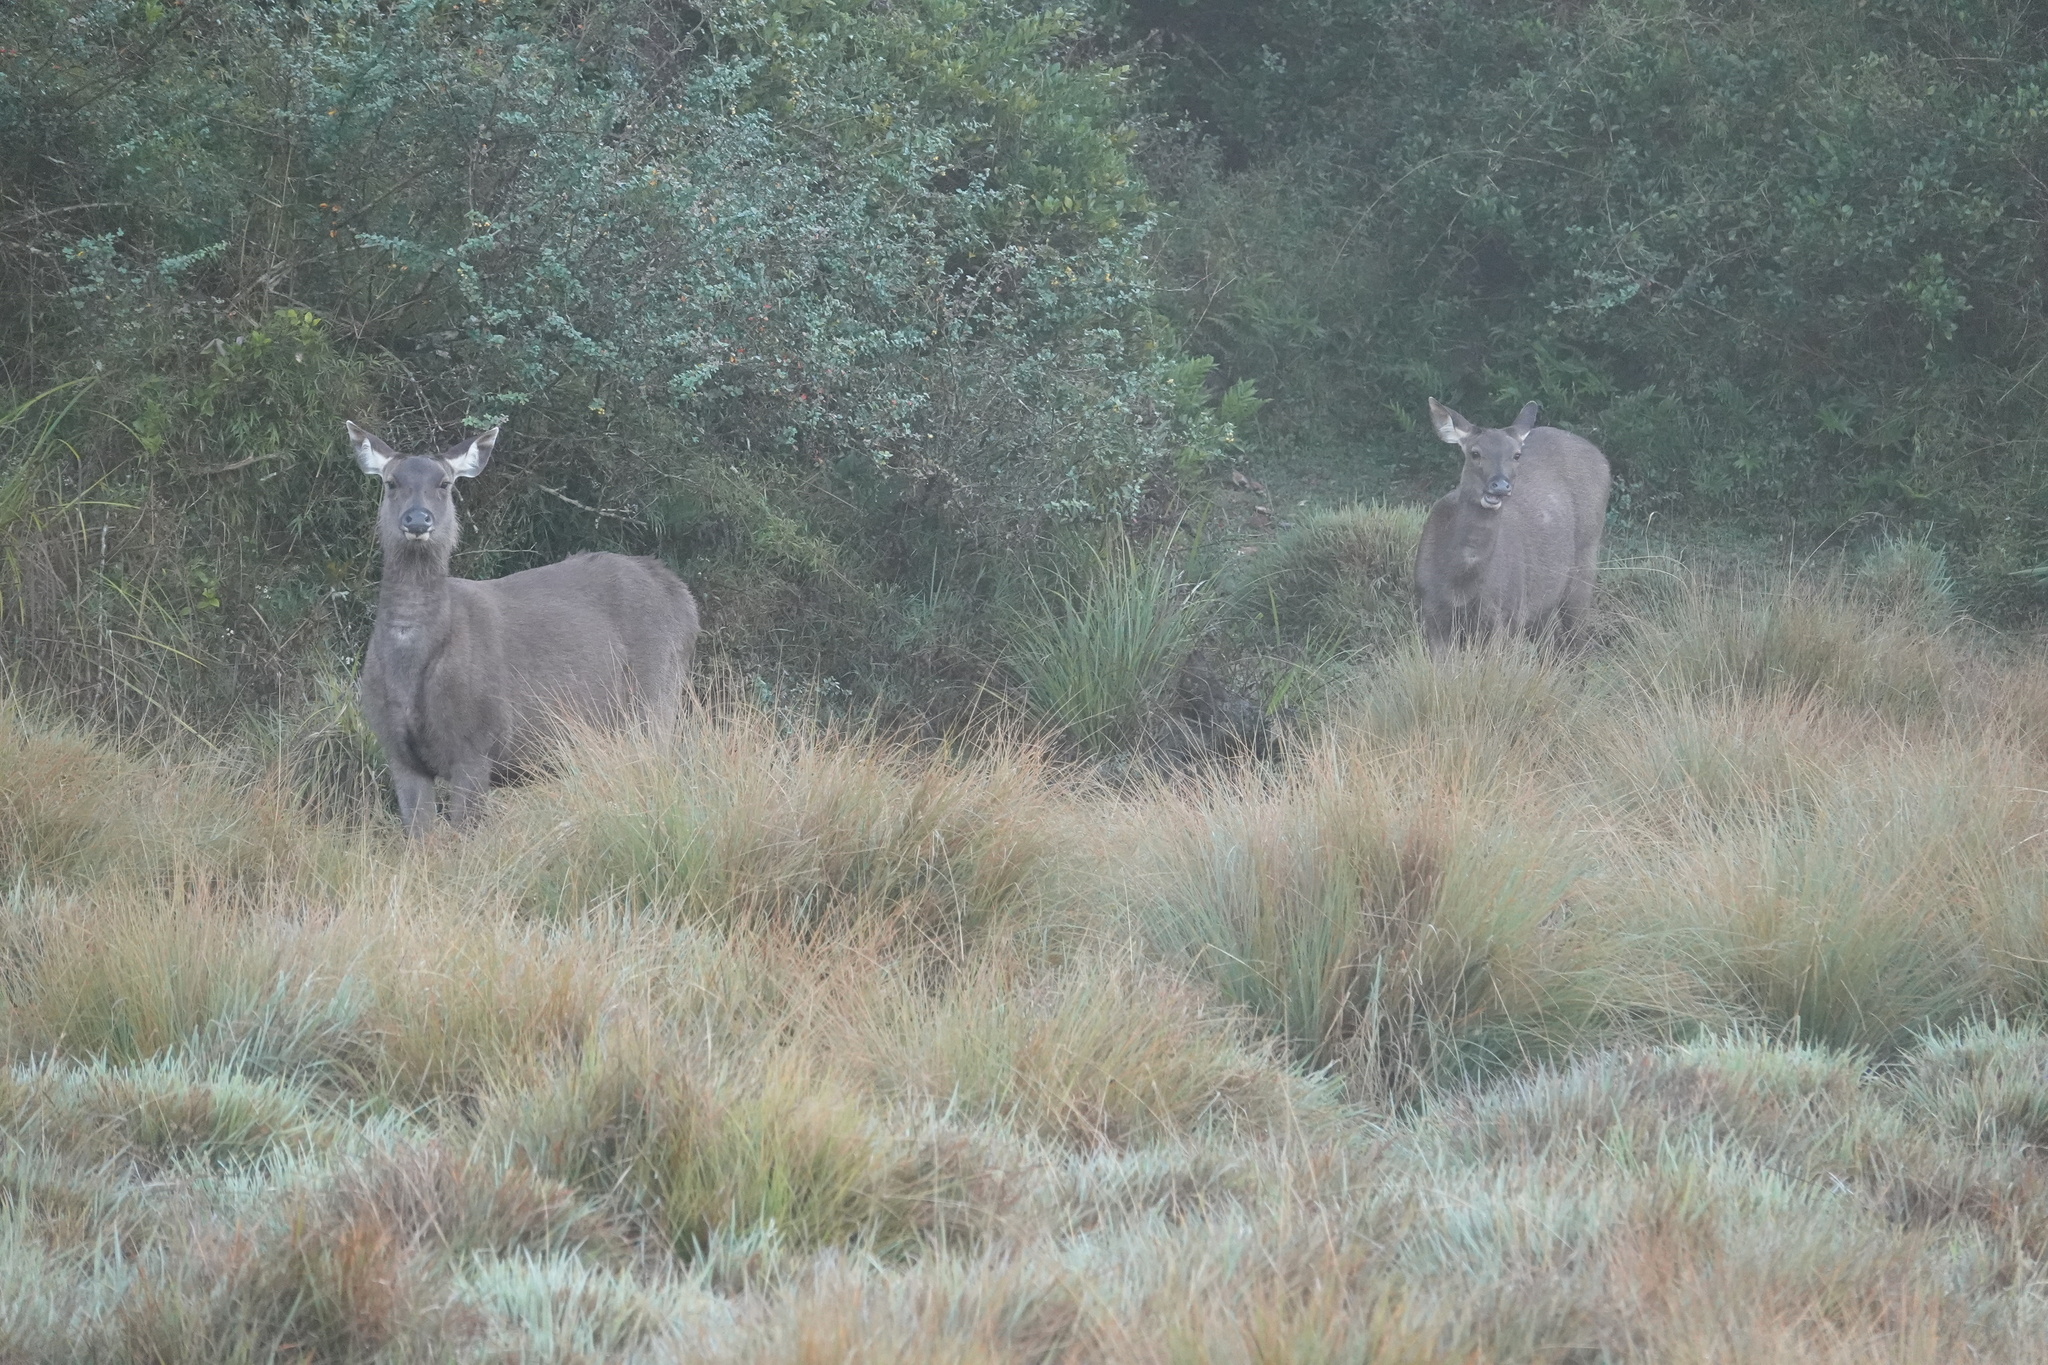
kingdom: Animalia
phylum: Chordata
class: Mammalia
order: Artiodactyla
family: Cervidae
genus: Rusa
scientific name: Rusa unicolor
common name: Sambar
